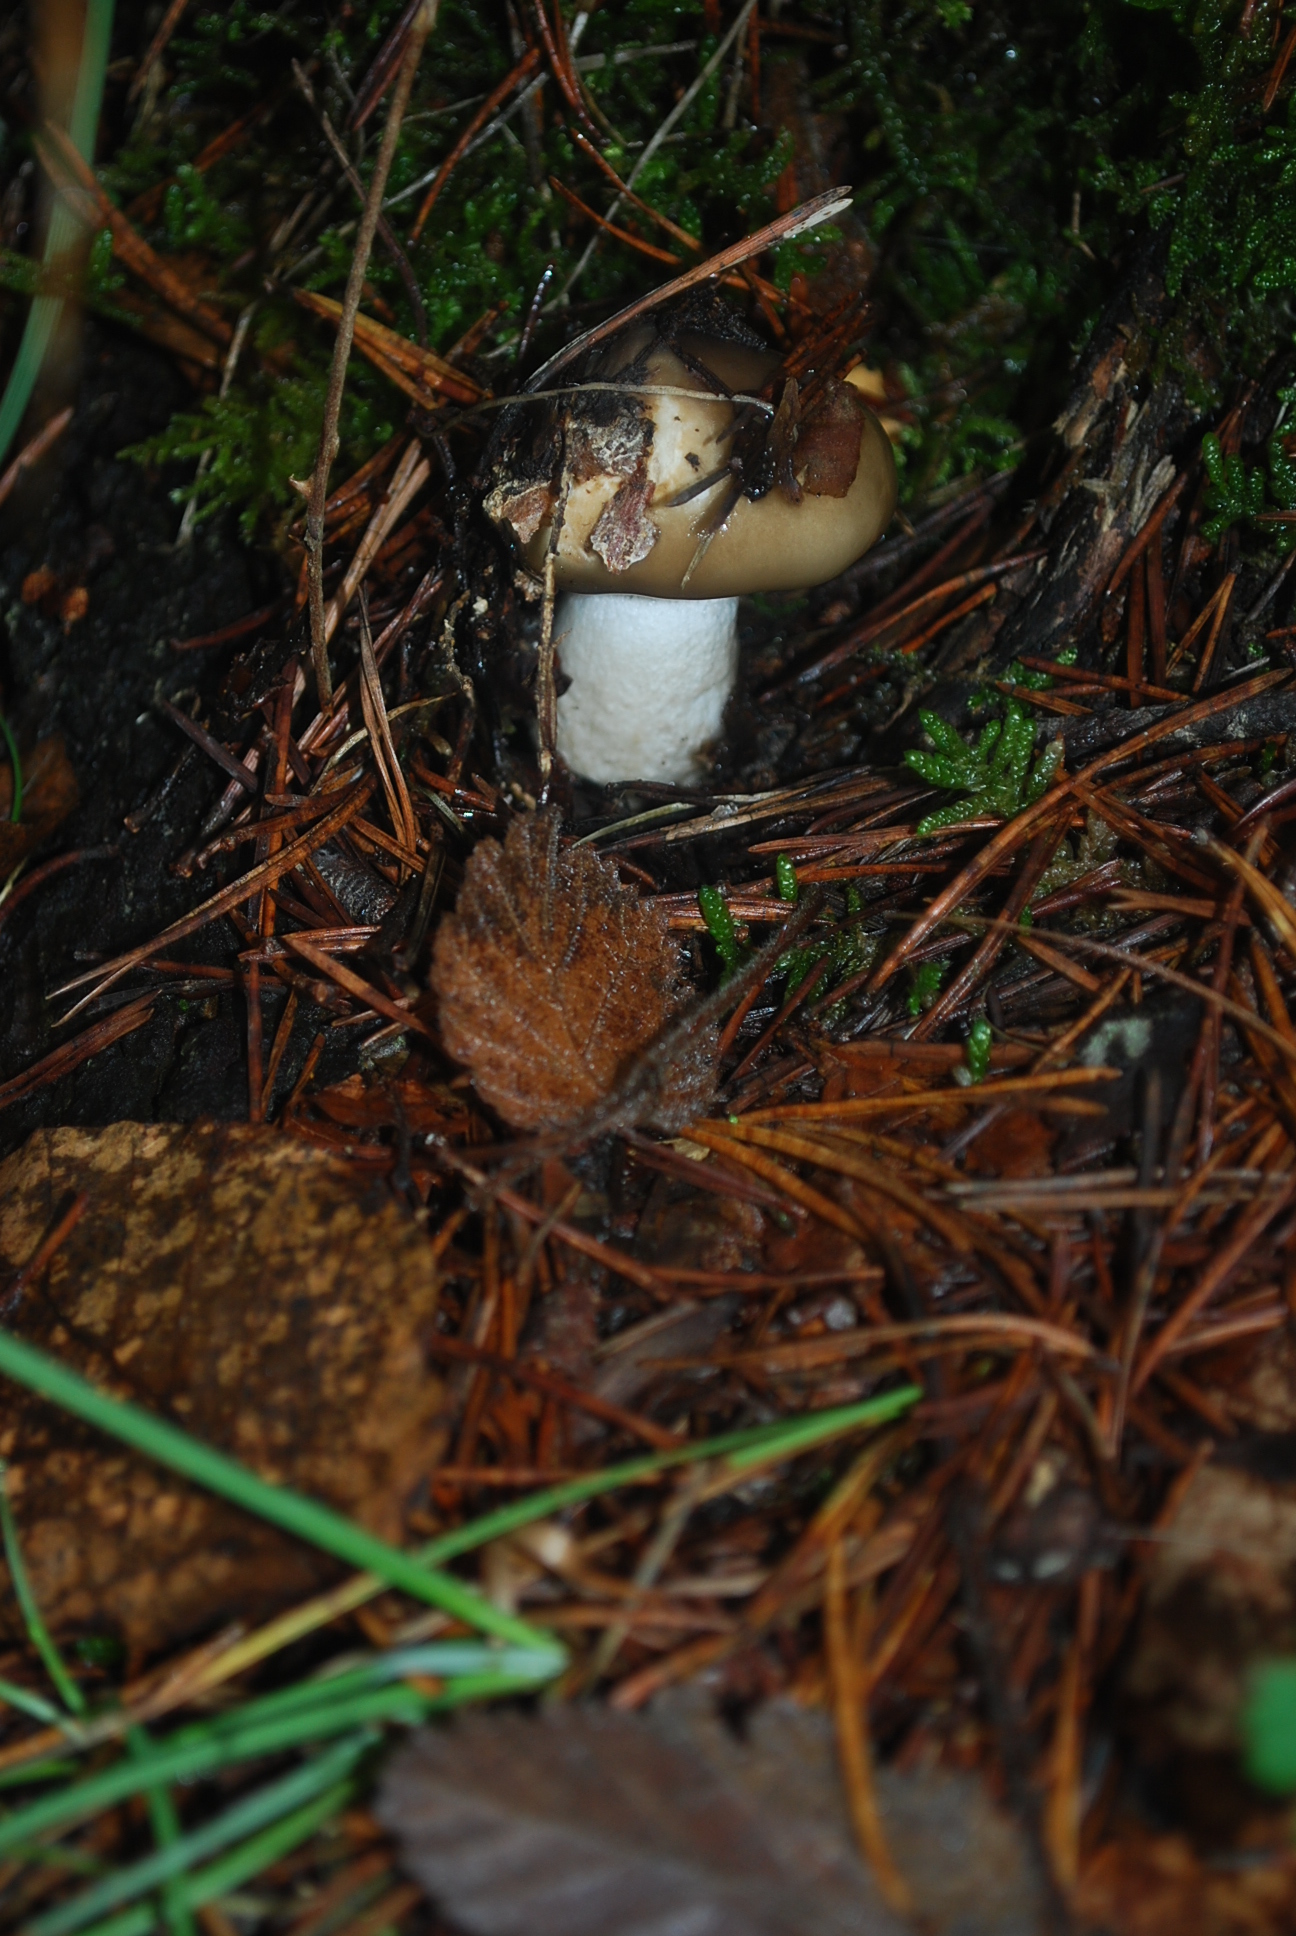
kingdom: Fungi
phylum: Basidiomycota
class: Agaricomycetes
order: Agaricales
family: Hygrophoraceae
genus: Hygrophorus
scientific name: Hygrophorus limacinus
